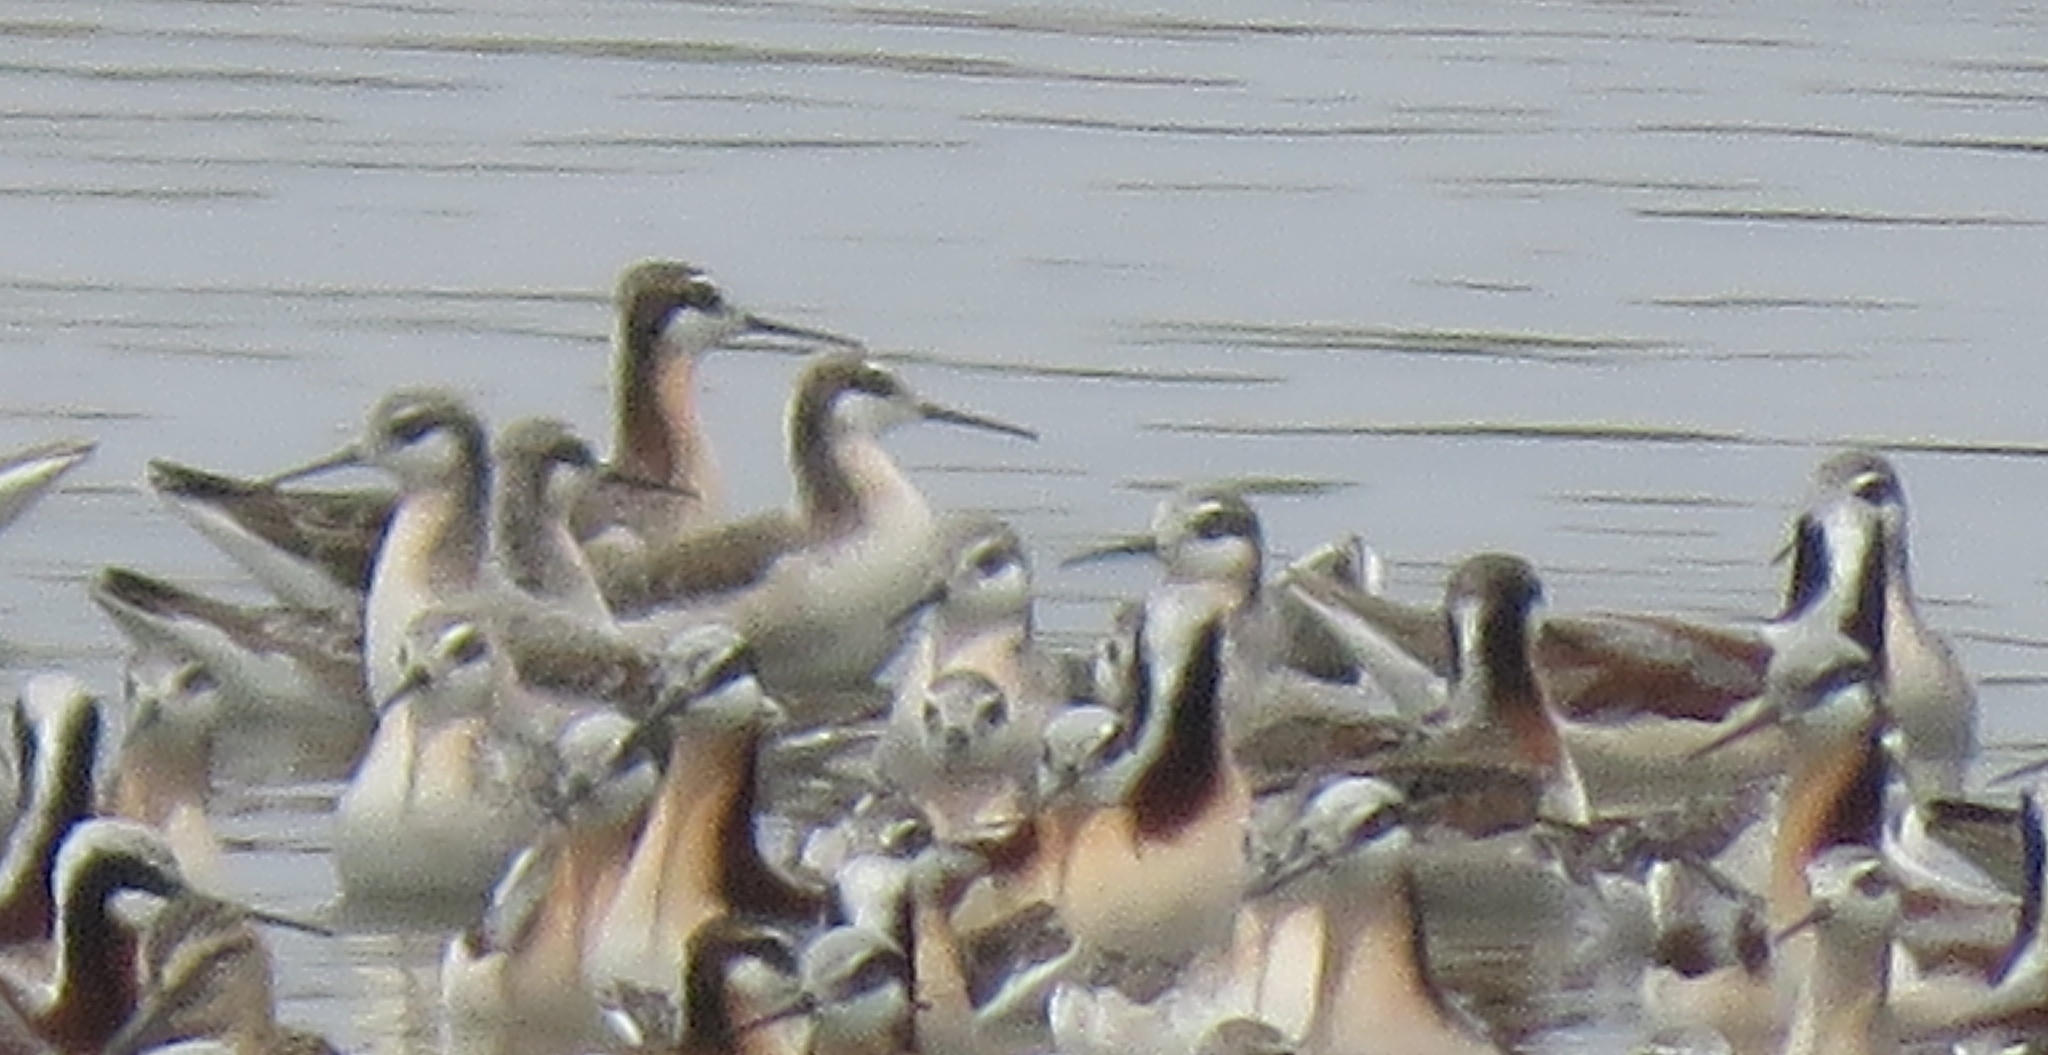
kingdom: Animalia
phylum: Chordata
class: Aves
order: Charadriiformes
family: Scolopacidae
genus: Phalaropus
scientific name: Phalaropus tricolor
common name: Wilson's phalarope
